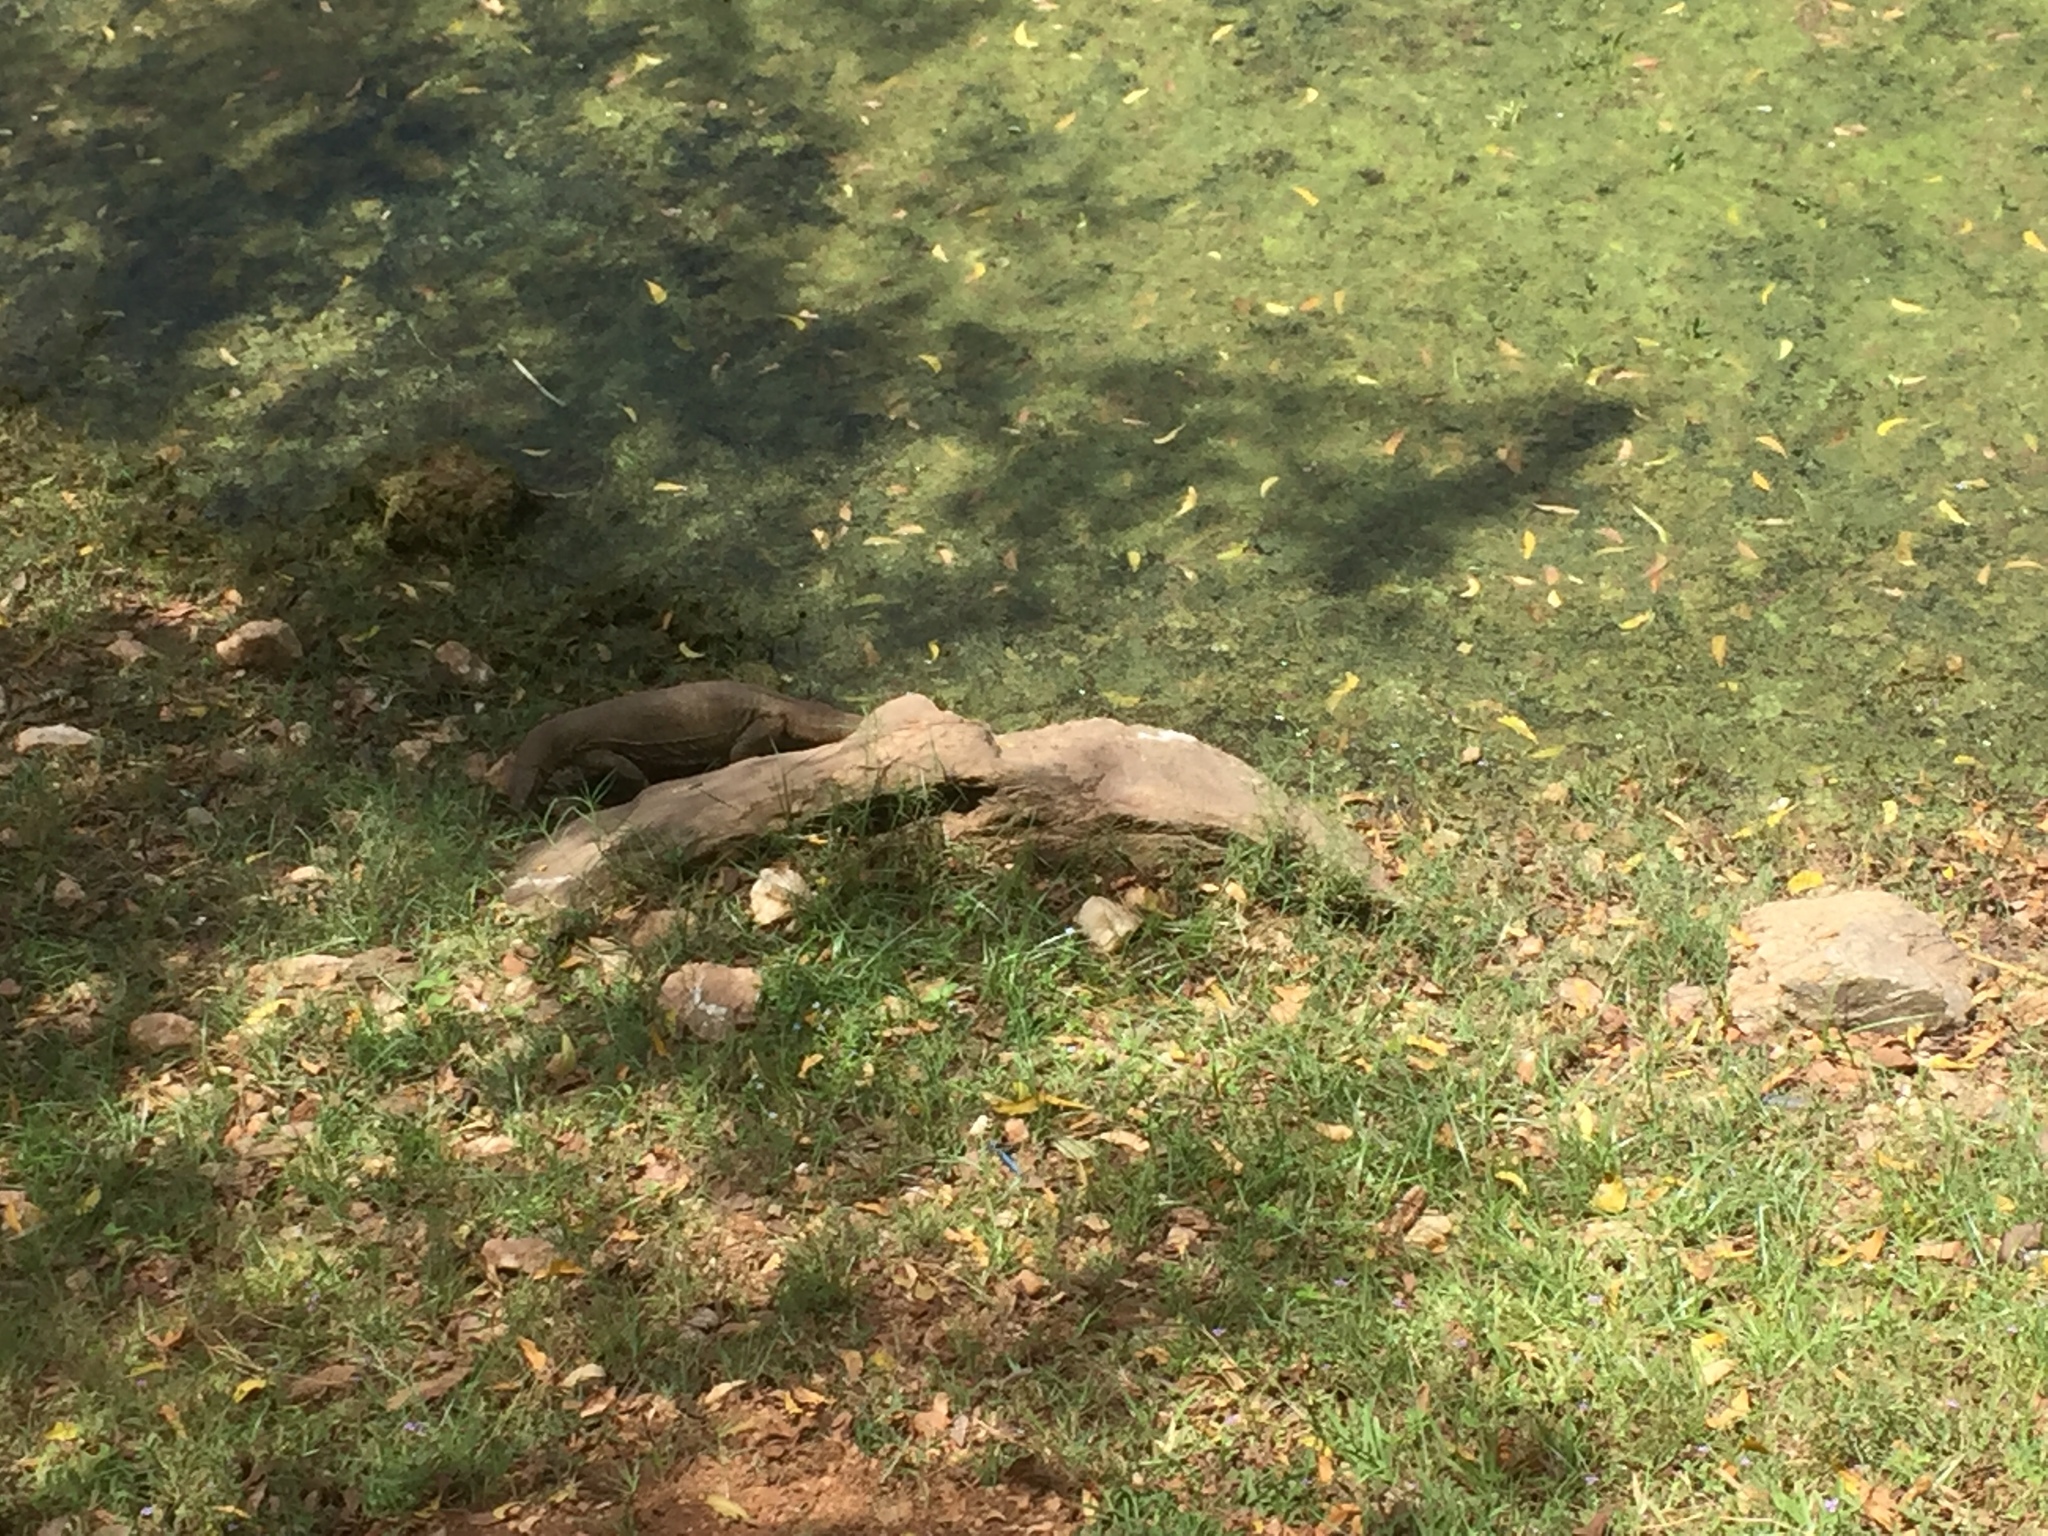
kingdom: Animalia
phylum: Chordata
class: Squamata
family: Varanidae
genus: Varanus
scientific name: Varanus bengalensis
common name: Bengal monitor
